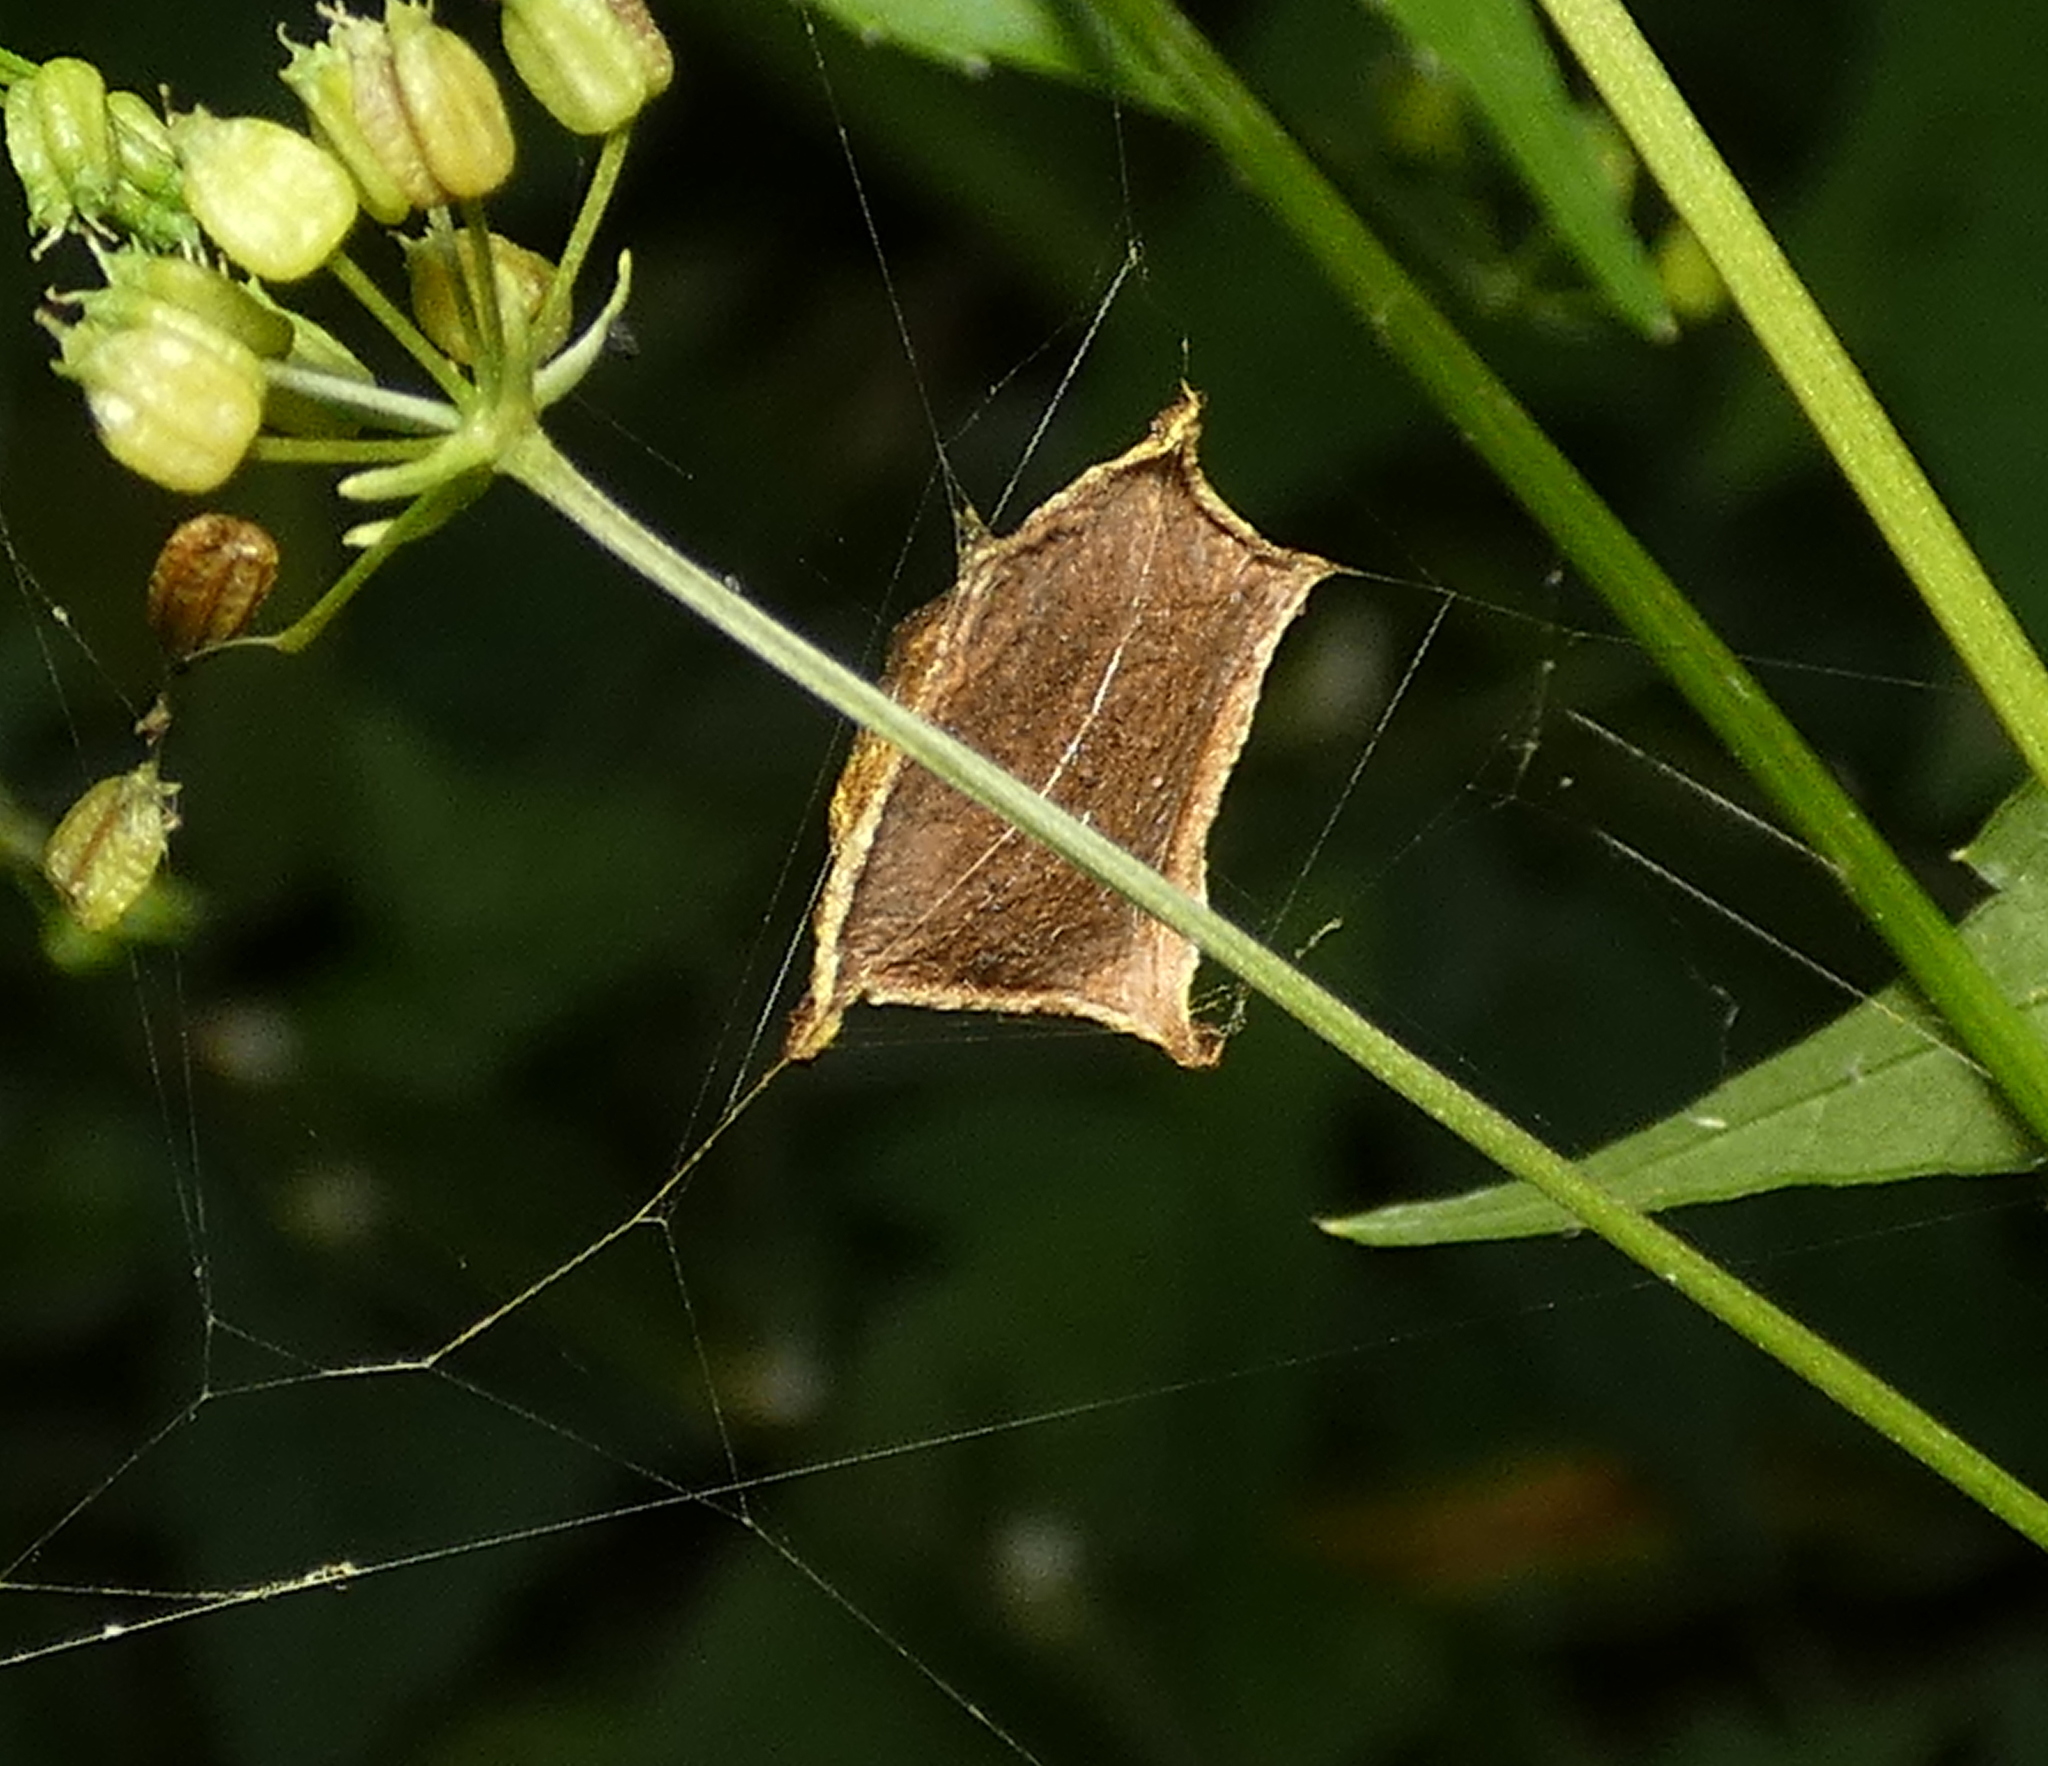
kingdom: Animalia
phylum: Arthropoda
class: Arachnida
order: Araneae
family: Araneidae
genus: Argiope
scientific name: Argiope argentata
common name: Orb weavers
